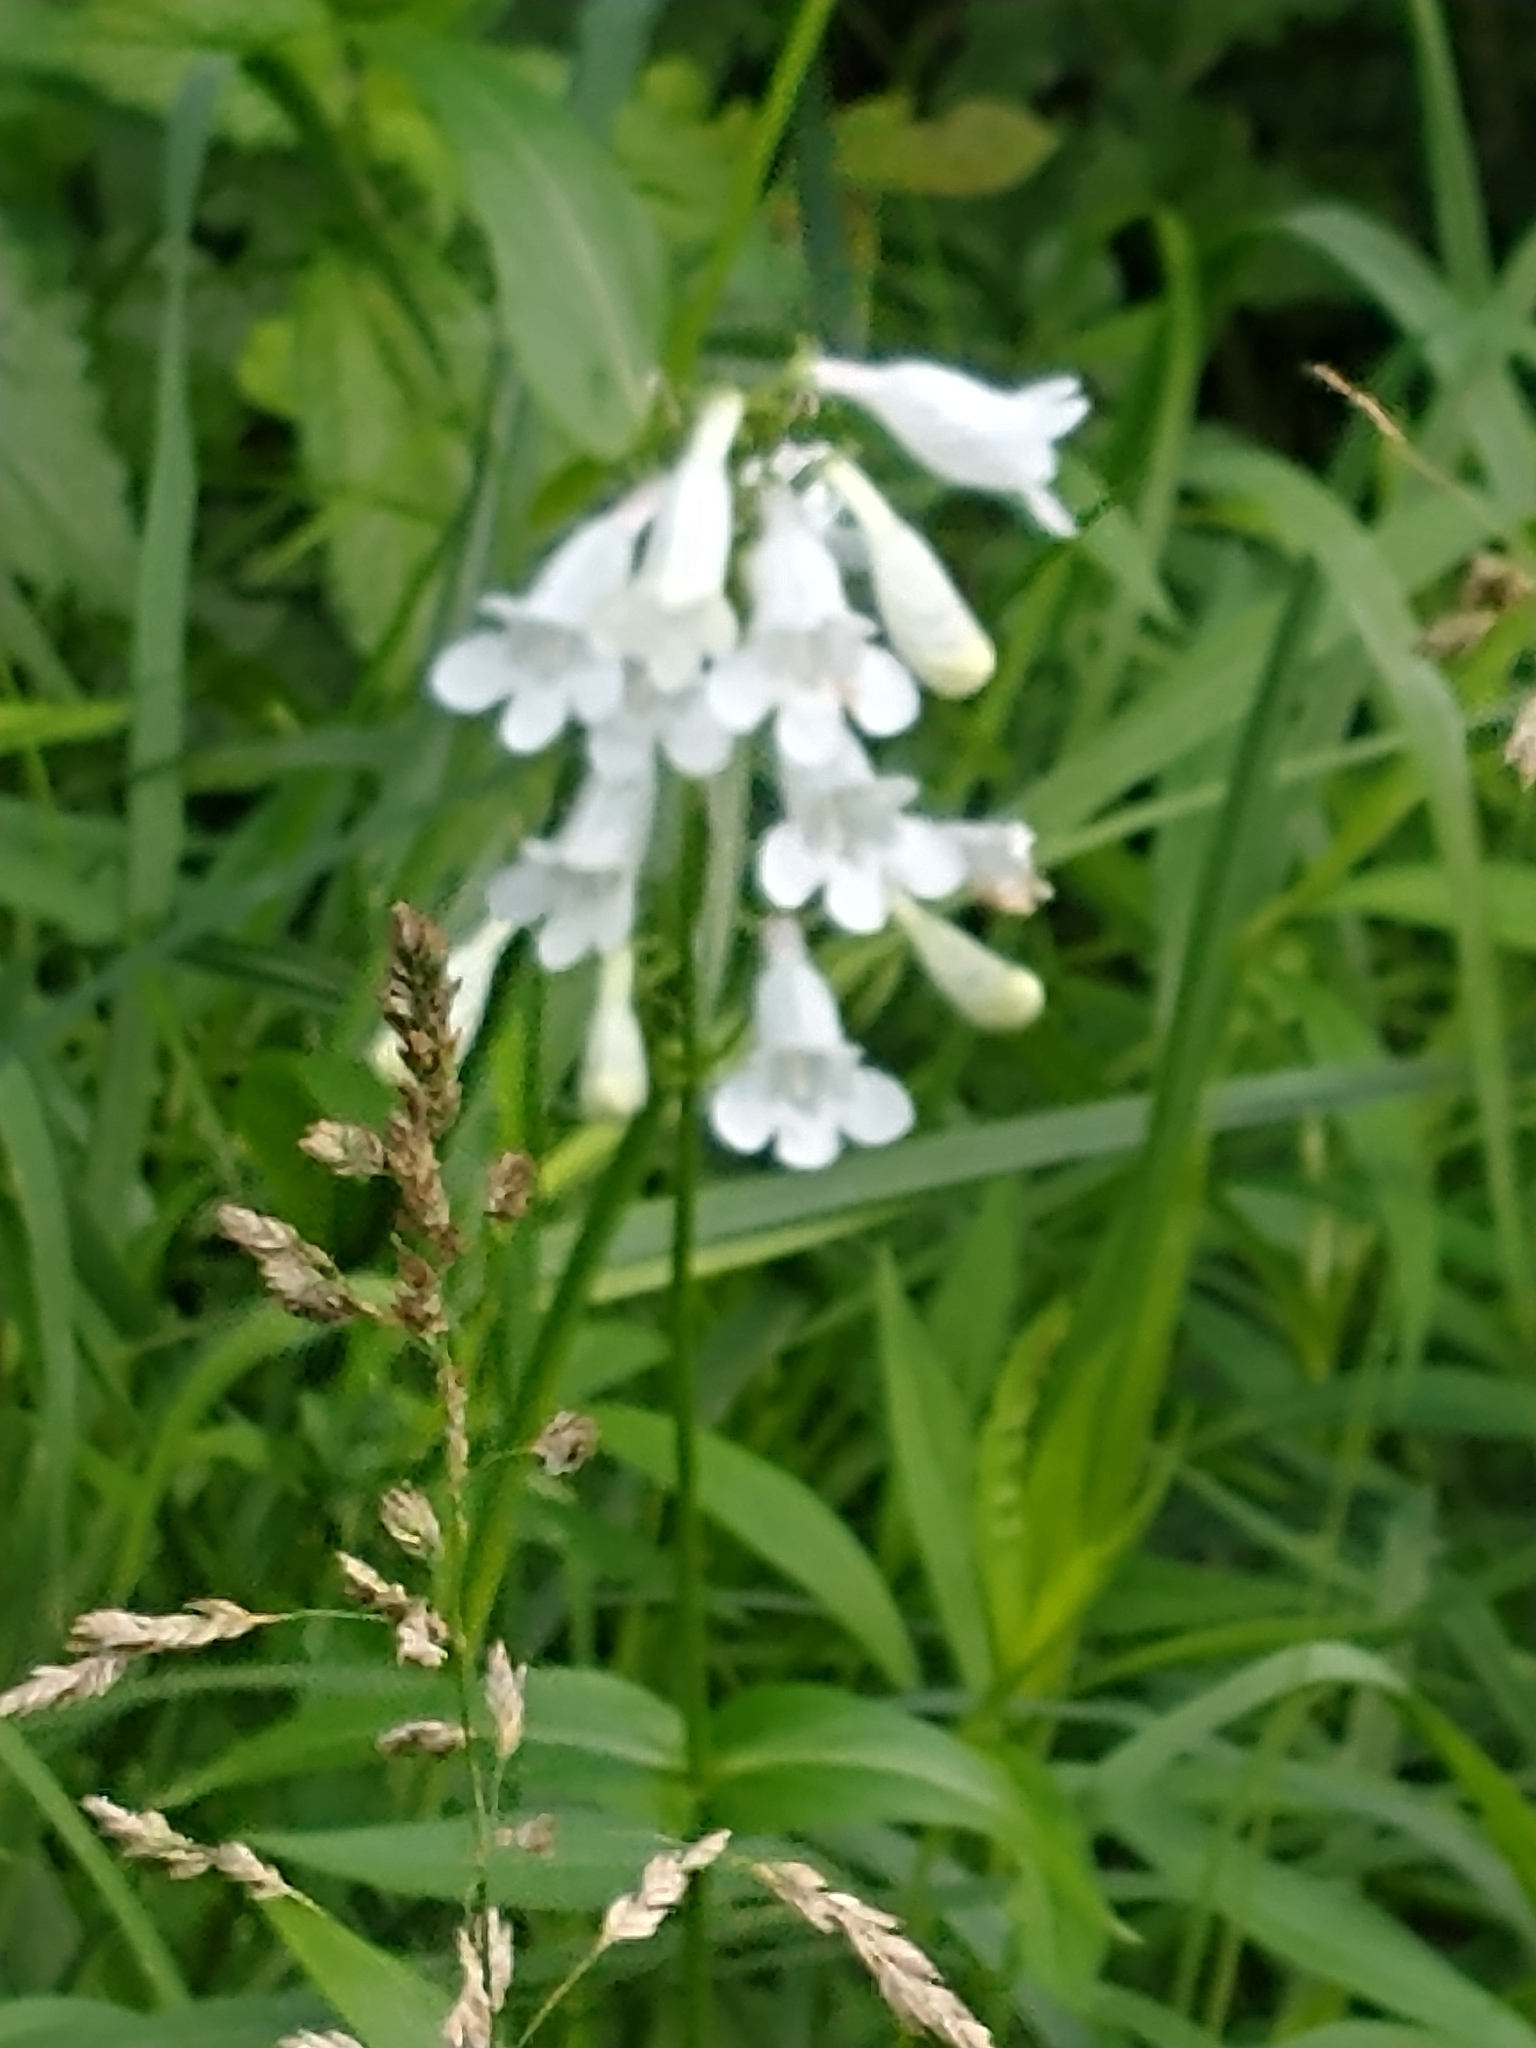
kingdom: Plantae
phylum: Tracheophyta
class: Magnoliopsida
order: Lamiales
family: Plantaginaceae
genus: Penstemon
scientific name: Penstemon digitalis
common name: Foxglove beardtongue
